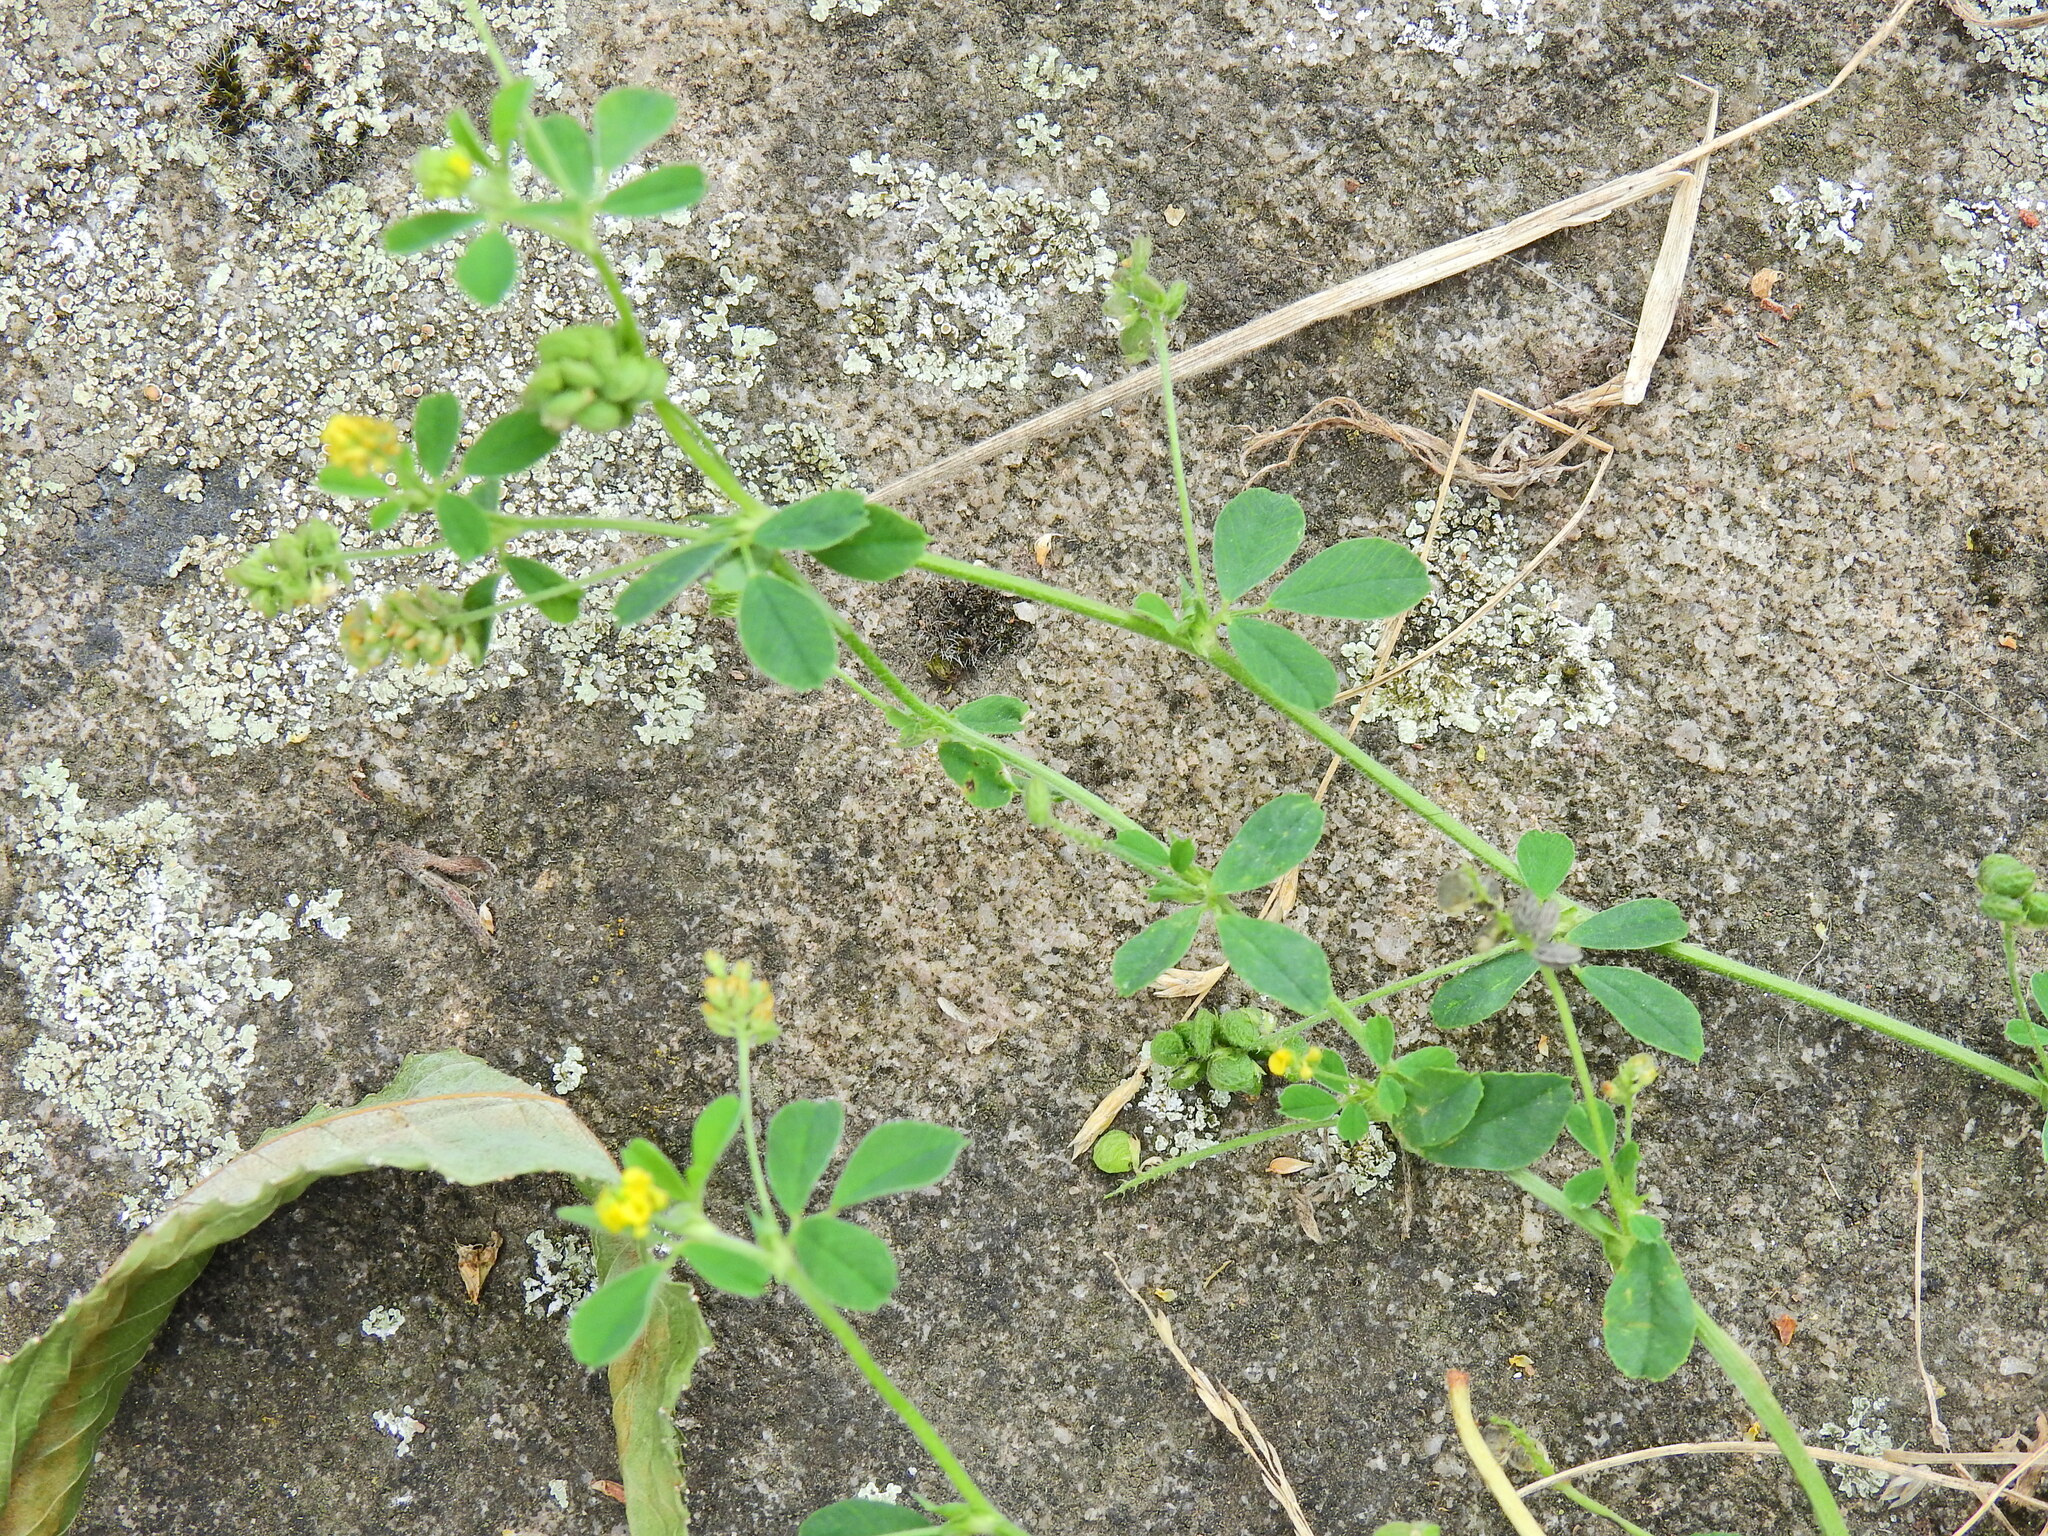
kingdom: Plantae
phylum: Tracheophyta
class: Magnoliopsida
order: Fabales
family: Fabaceae
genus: Medicago
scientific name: Medicago lupulina
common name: Black medick
